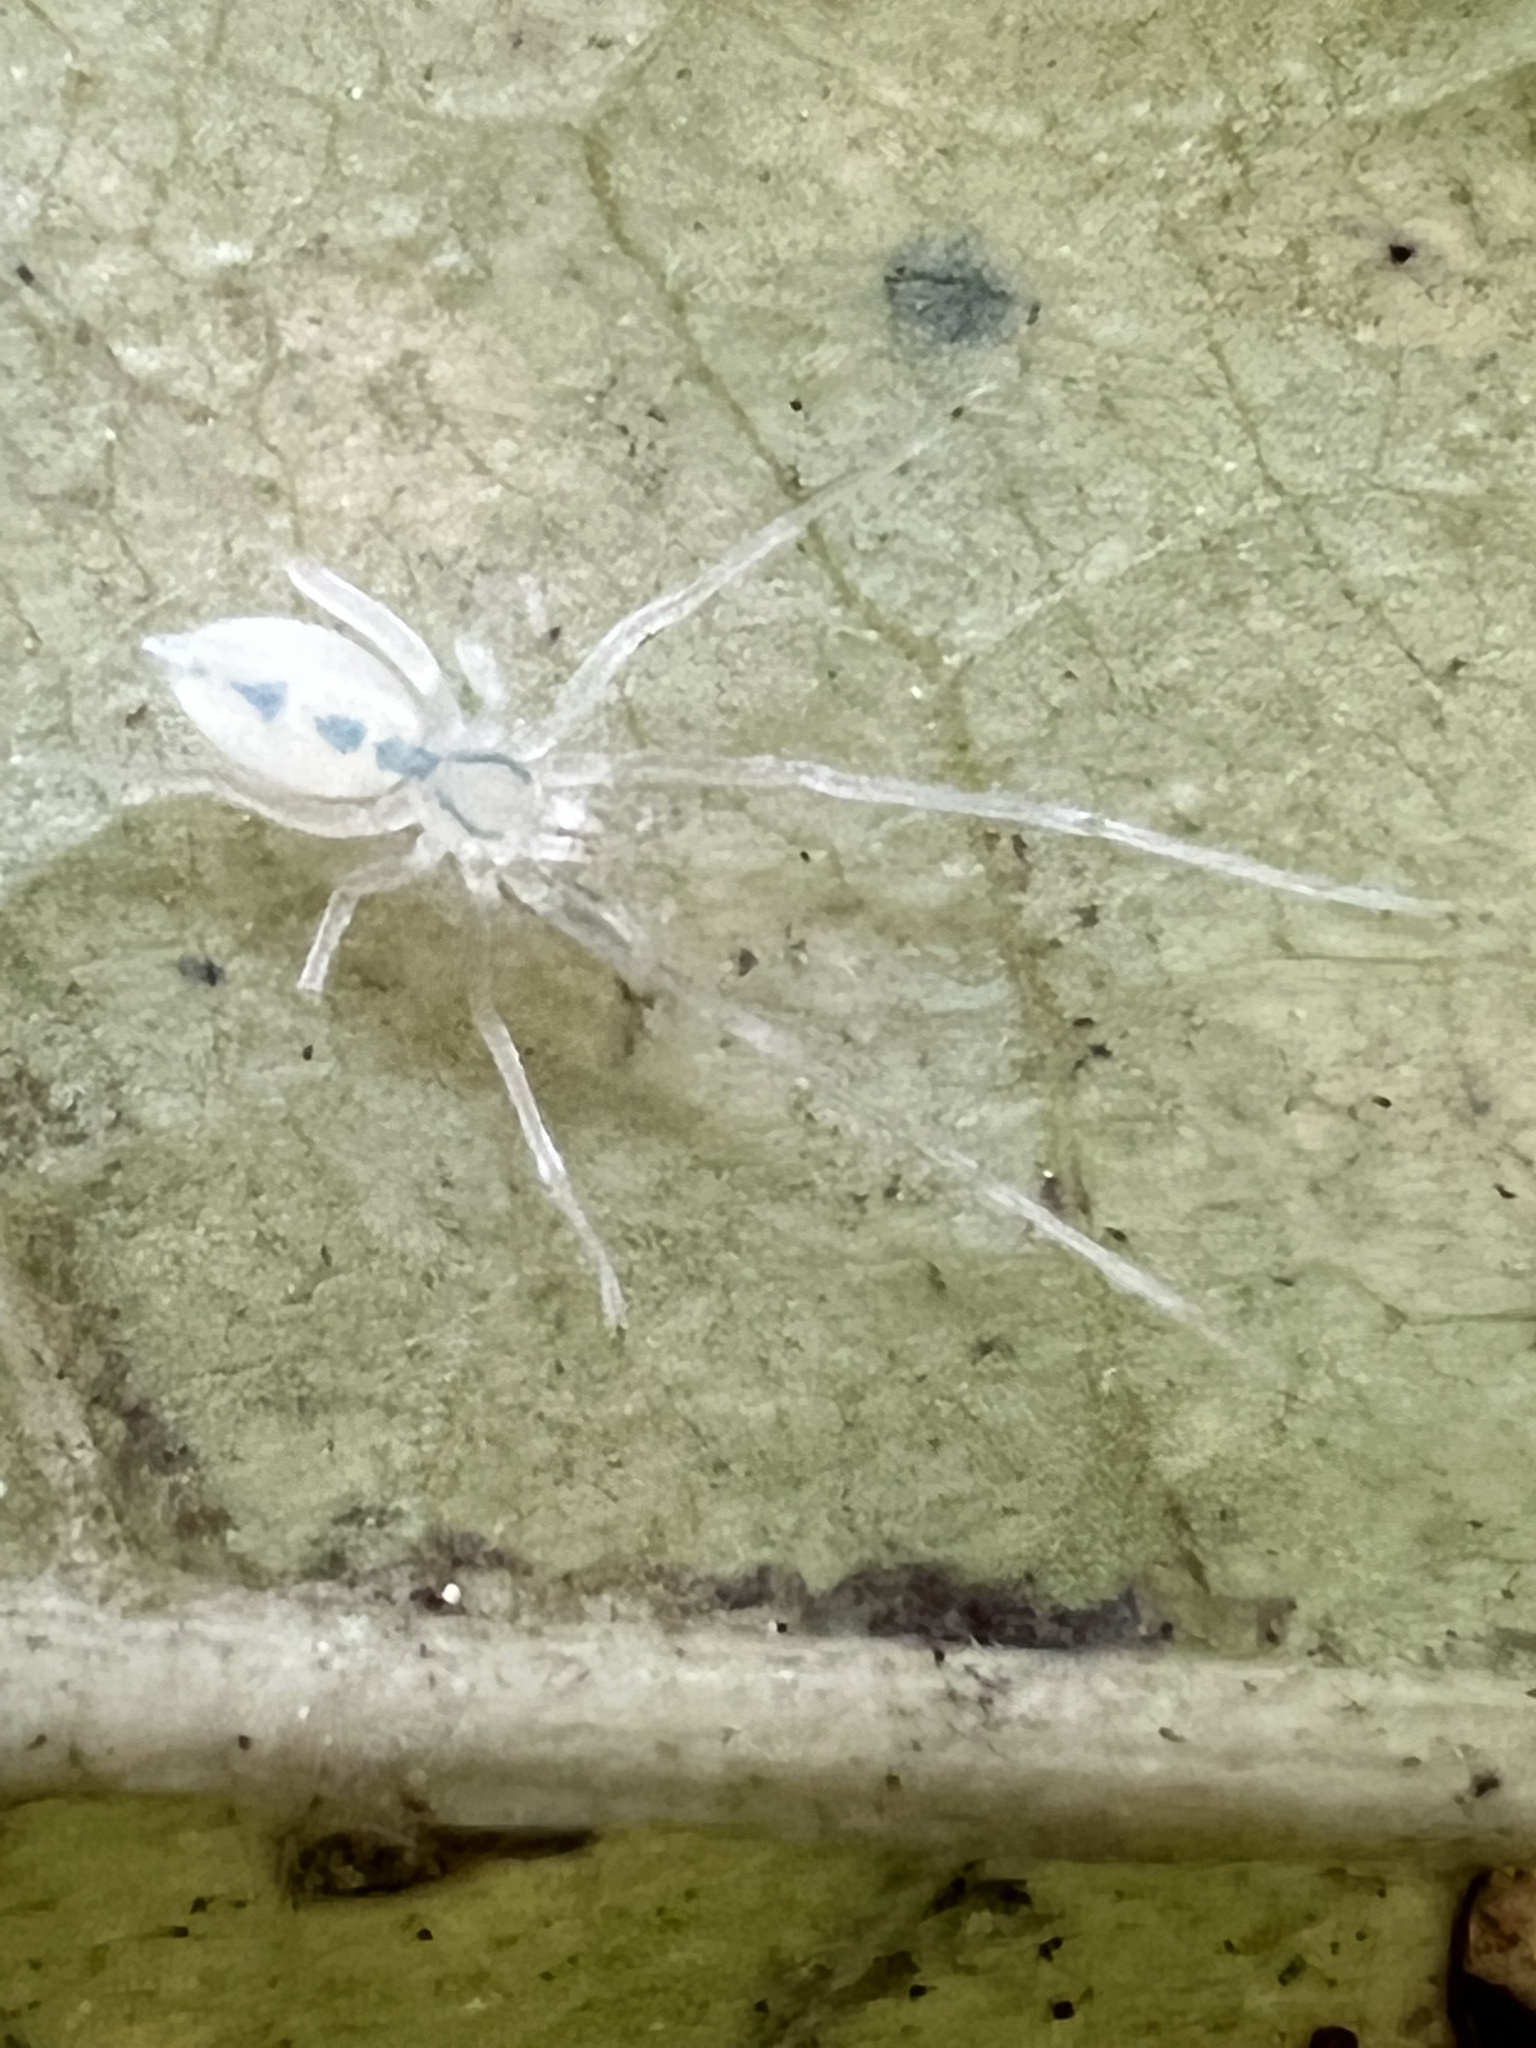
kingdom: Animalia
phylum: Arthropoda
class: Arachnida
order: Araneae
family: Anyphaenidae
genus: Wulfila
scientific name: Wulfila albens
